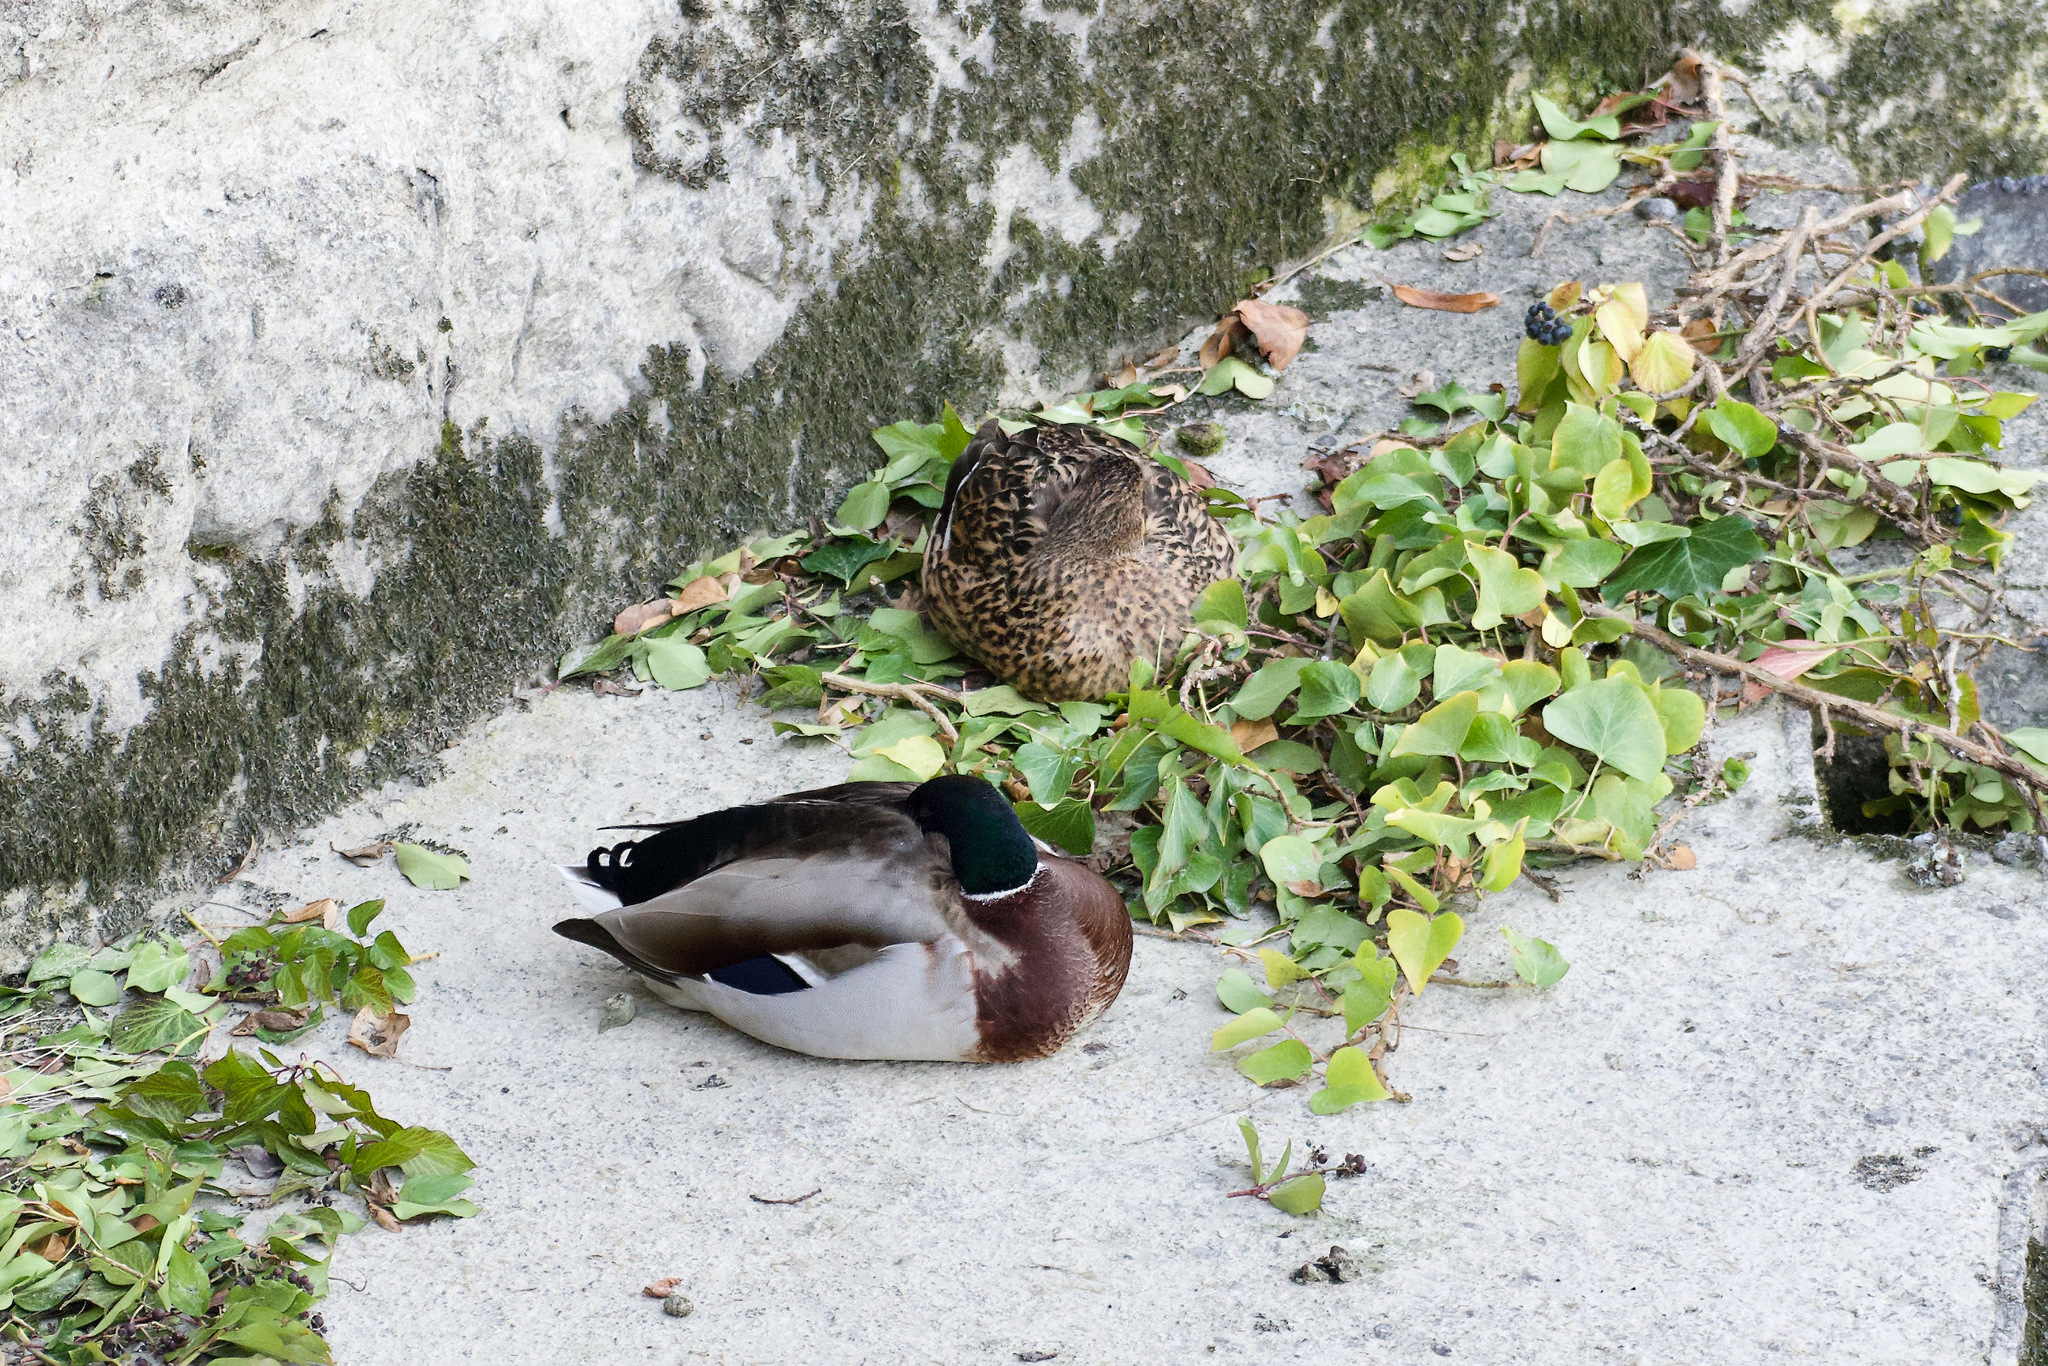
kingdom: Animalia
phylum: Chordata
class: Aves
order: Anseriformes
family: Anatidae
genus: Anas
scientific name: Anas platyrhynchos
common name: Mallard
